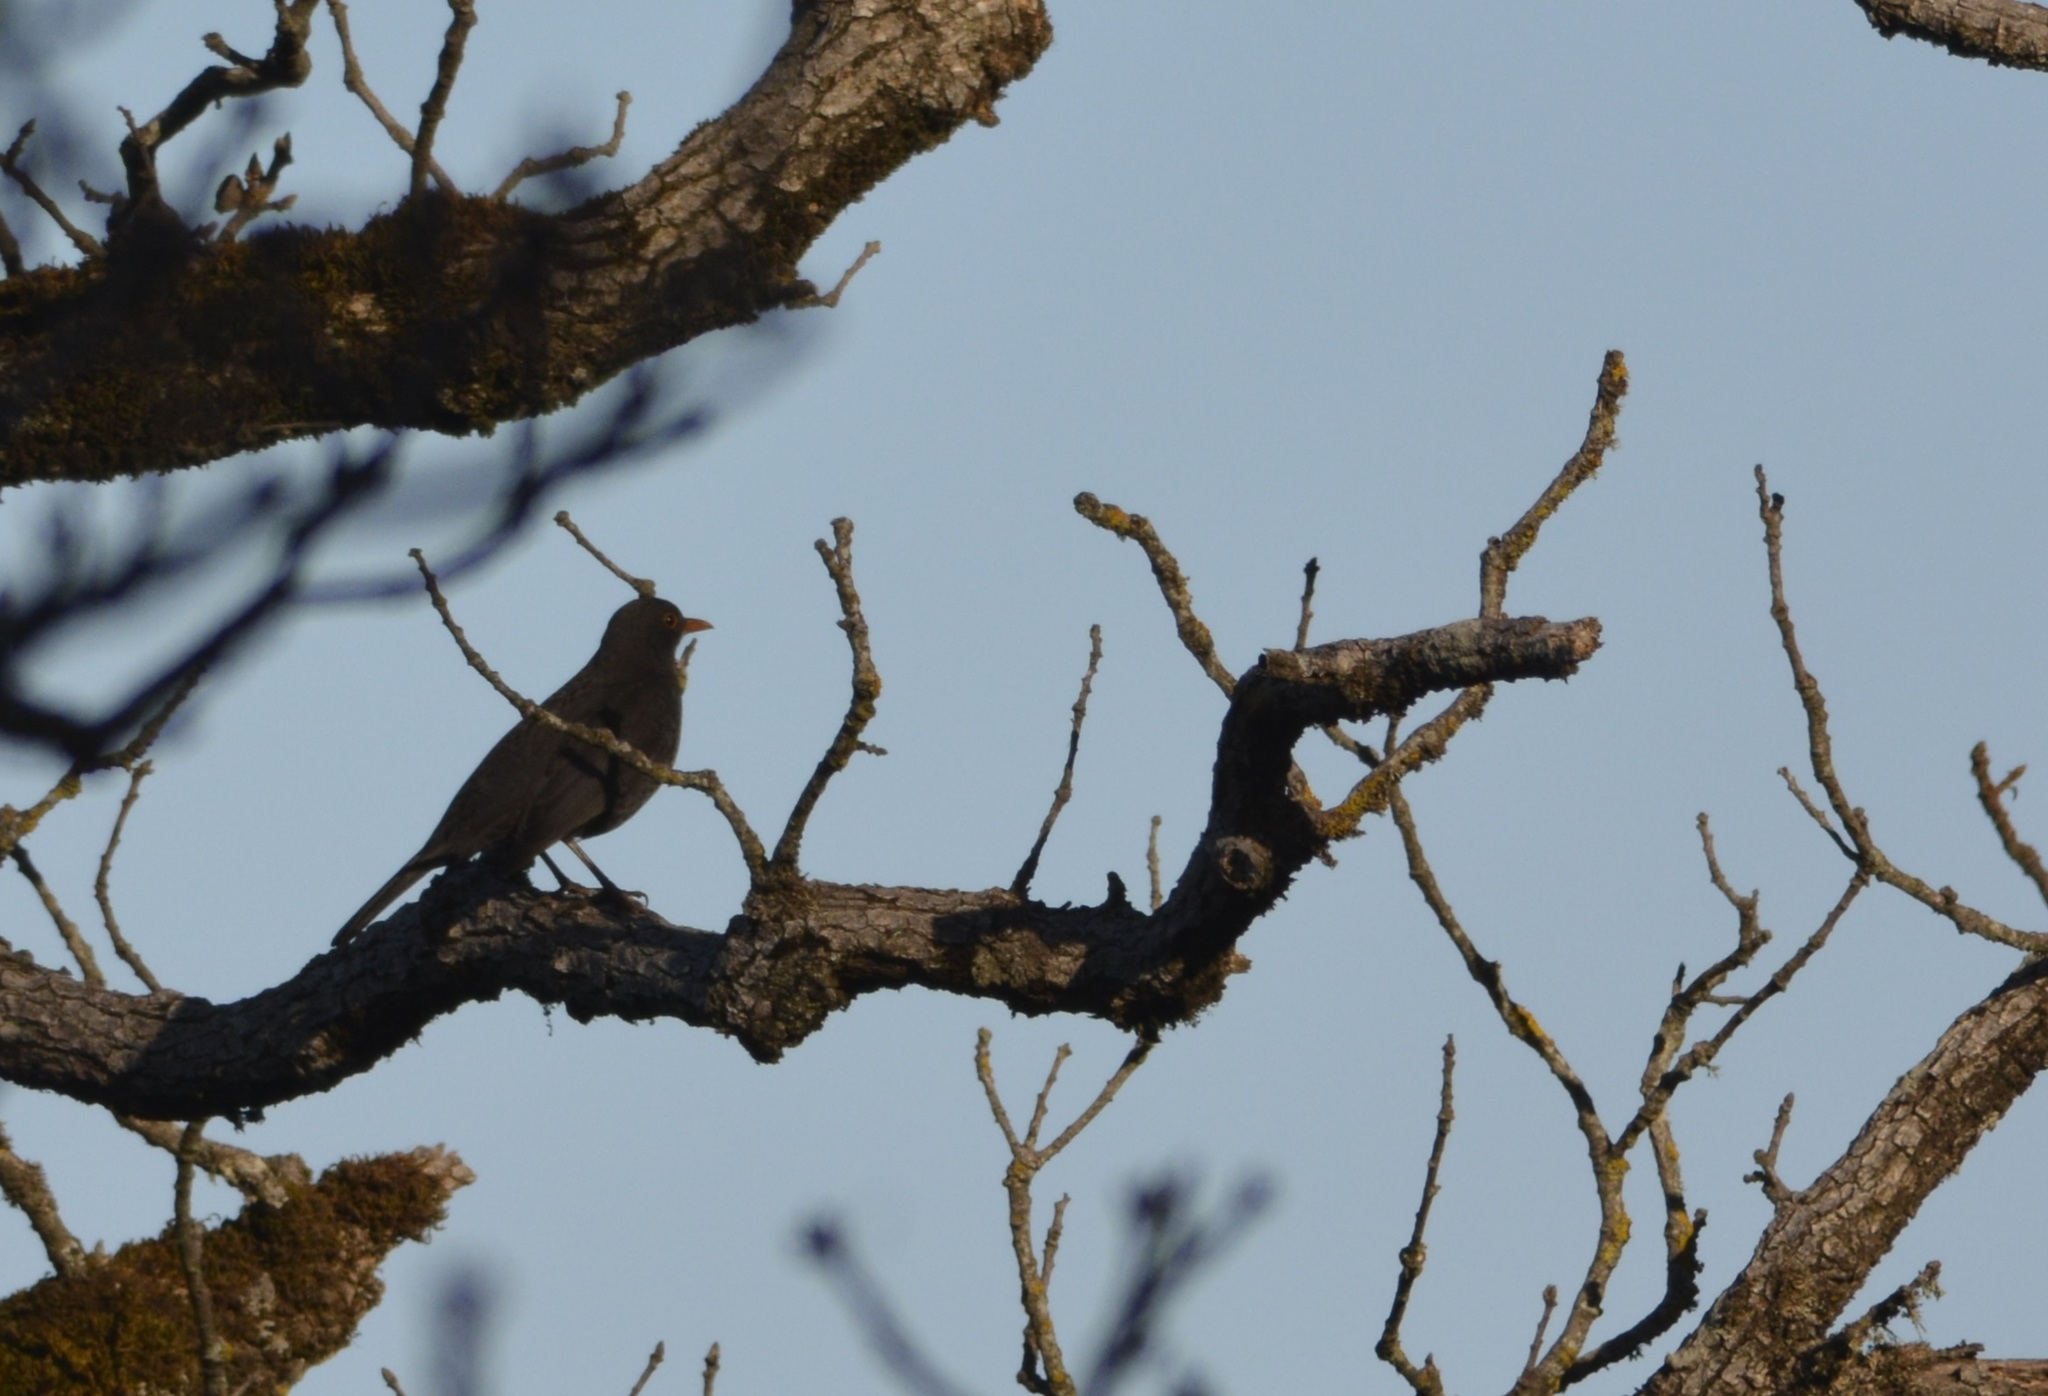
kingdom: Animalia
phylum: Chordata
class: Aves
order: Passeriformes
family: Turdidae
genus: Turdus
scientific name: Turdus merula
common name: Common blackbird
